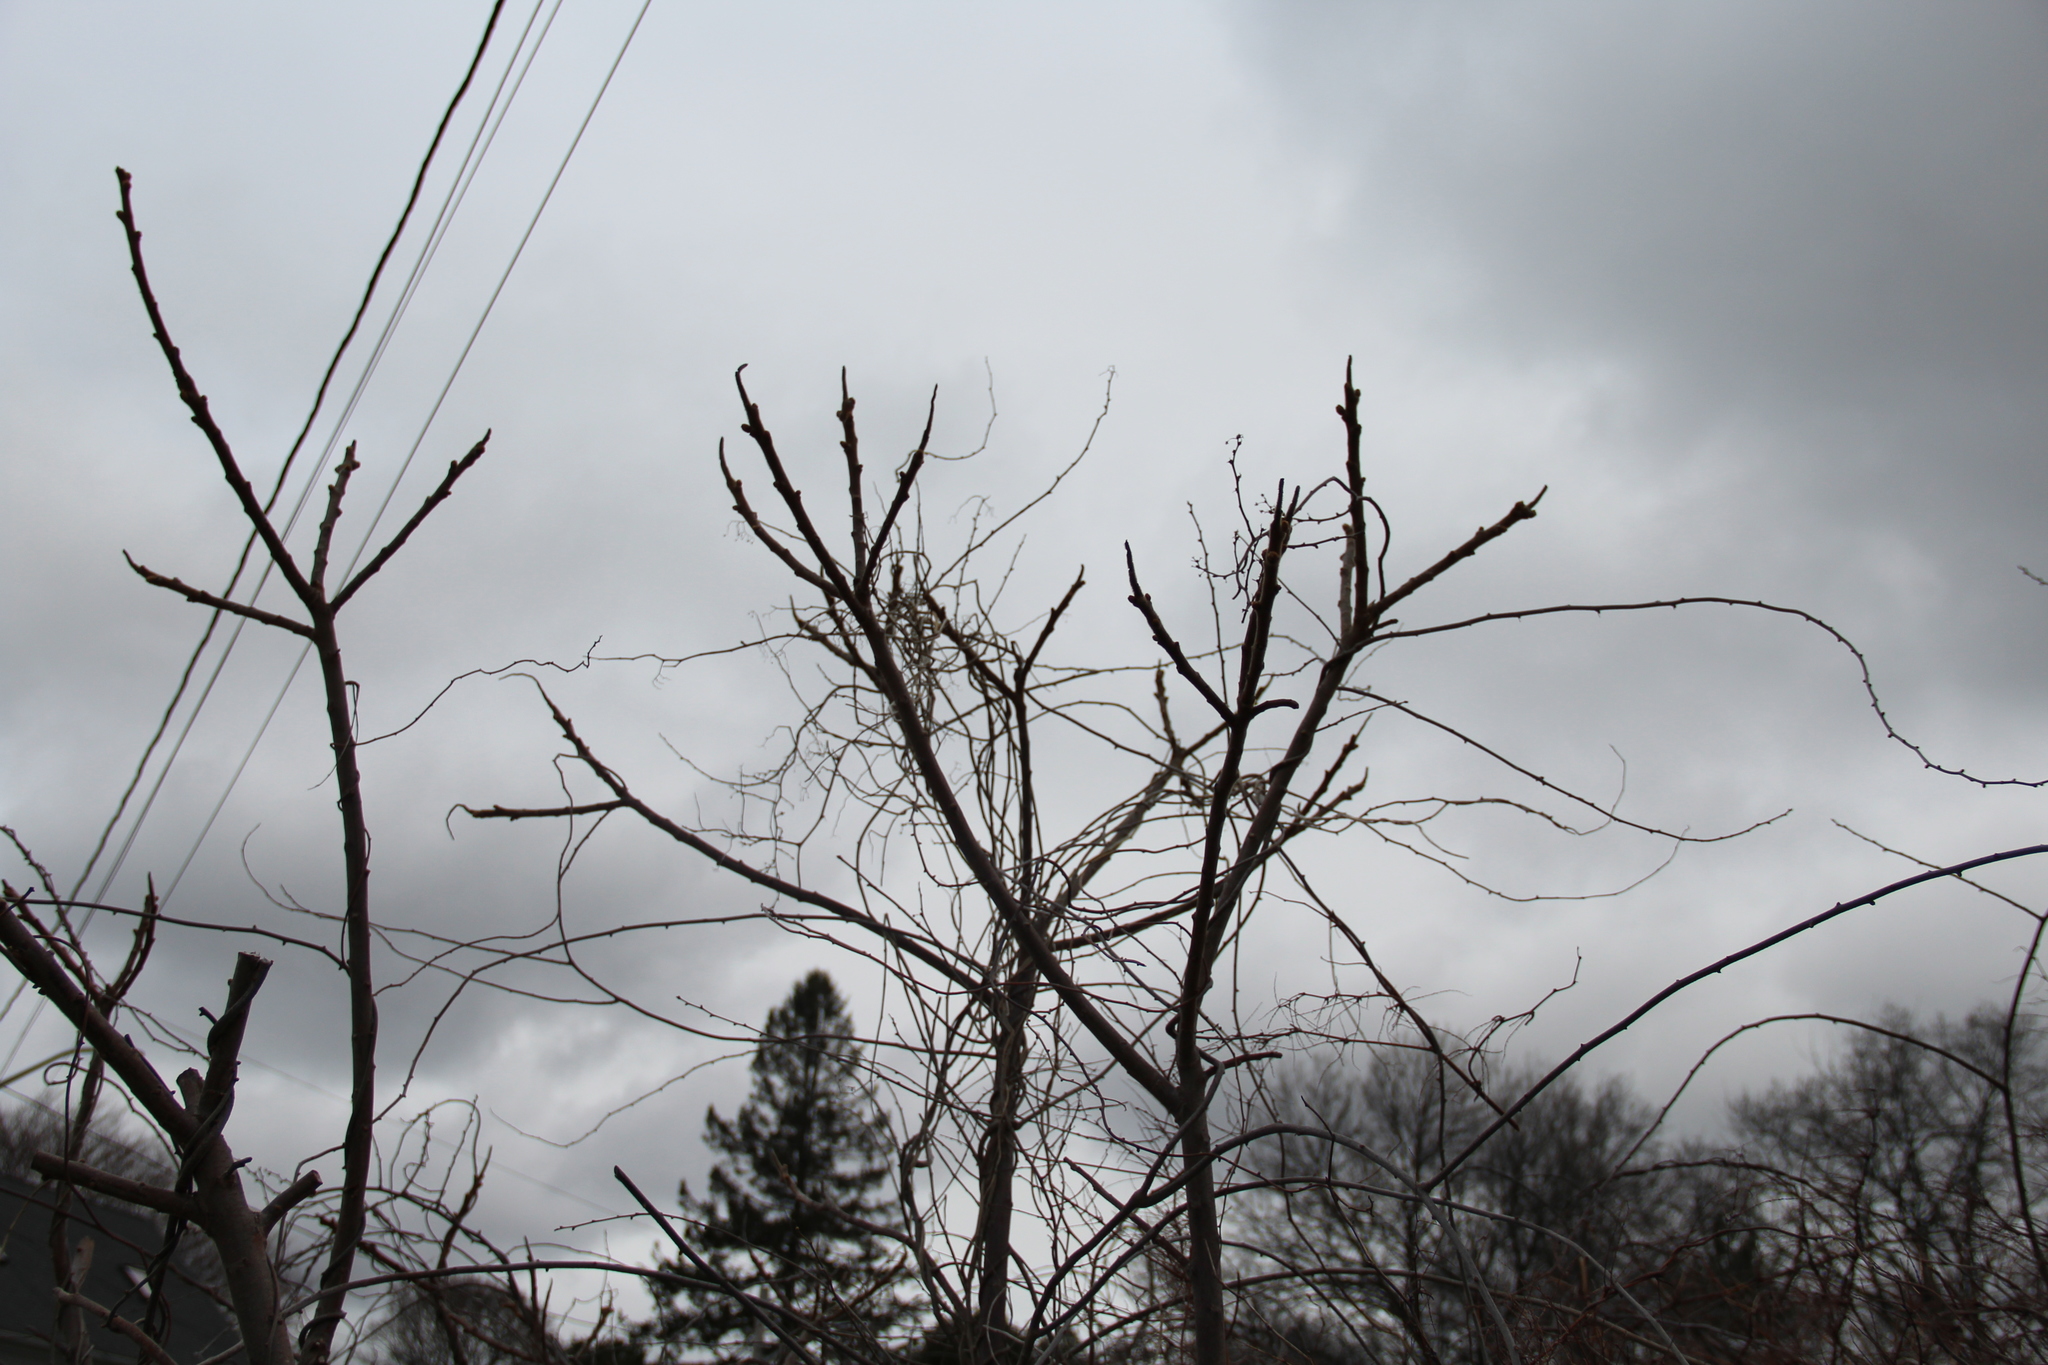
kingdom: Plantae
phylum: Tracheophyta
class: Magnoliopsida
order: Sapindales
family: Anacardiaceae
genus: Rhus
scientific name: Rhus typhina
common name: Staghorn sumac
